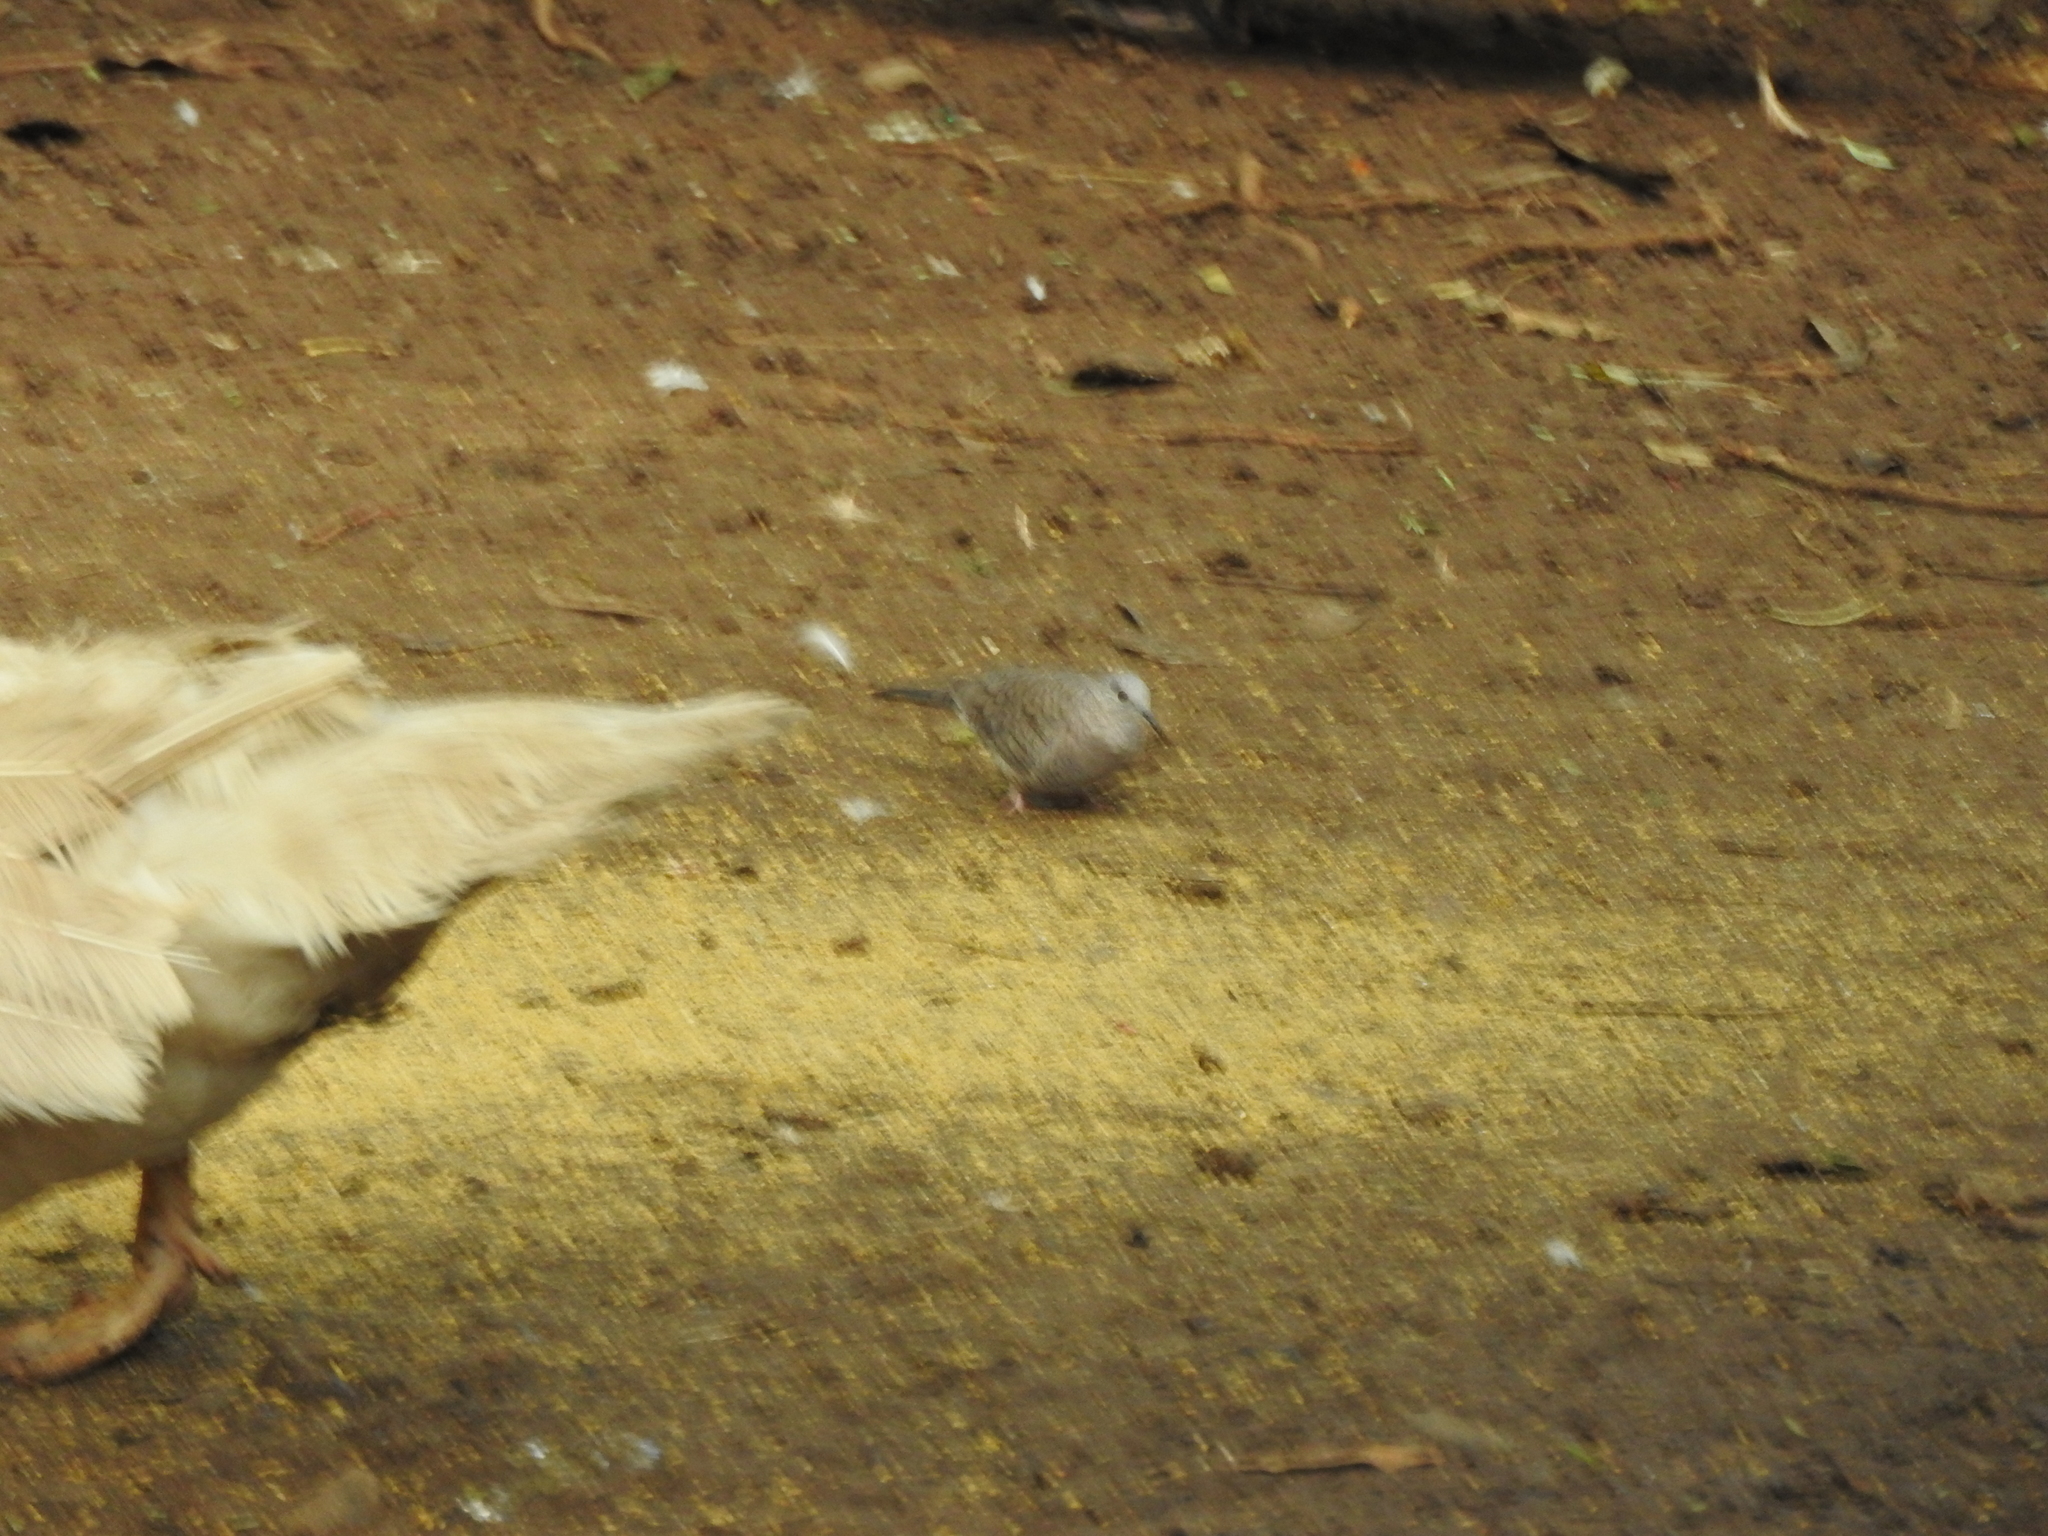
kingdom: Animalia
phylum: Chordata
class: Aves
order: Columbiformes
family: Columbidae
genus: Columbina
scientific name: Columbina inca
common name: Inca dove
